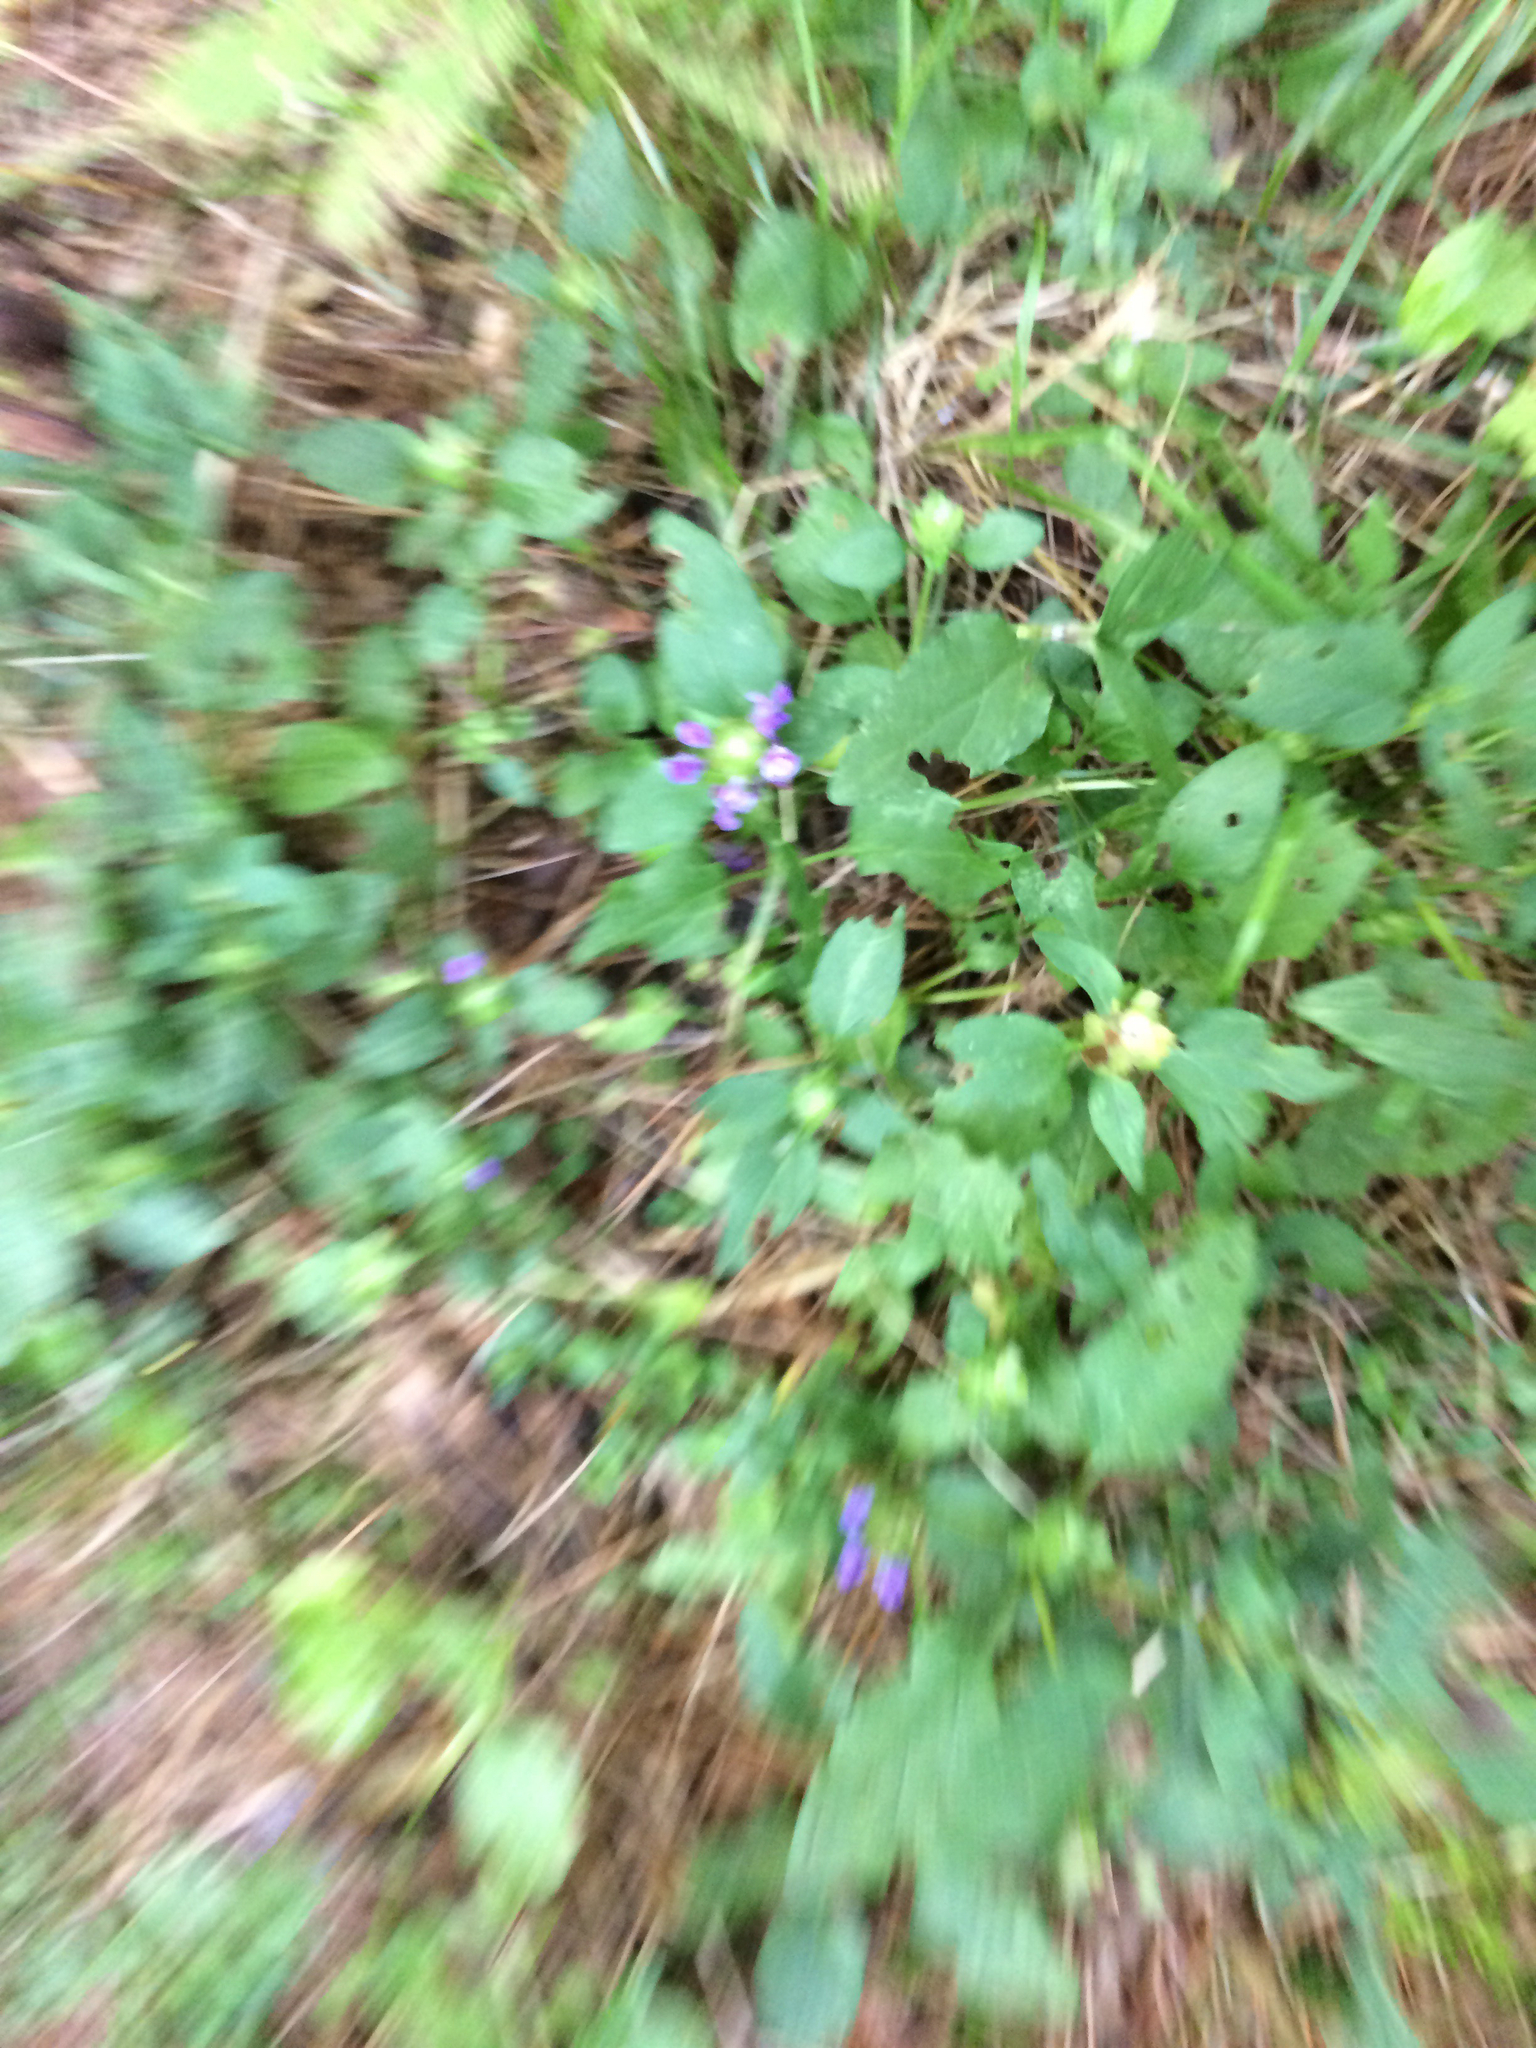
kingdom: Plantae
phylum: Tracheophyta
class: Magnoliopsida
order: Lamiales
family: Lamiaceae
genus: Prunella
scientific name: Prunella vulgaris
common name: Heal-all
